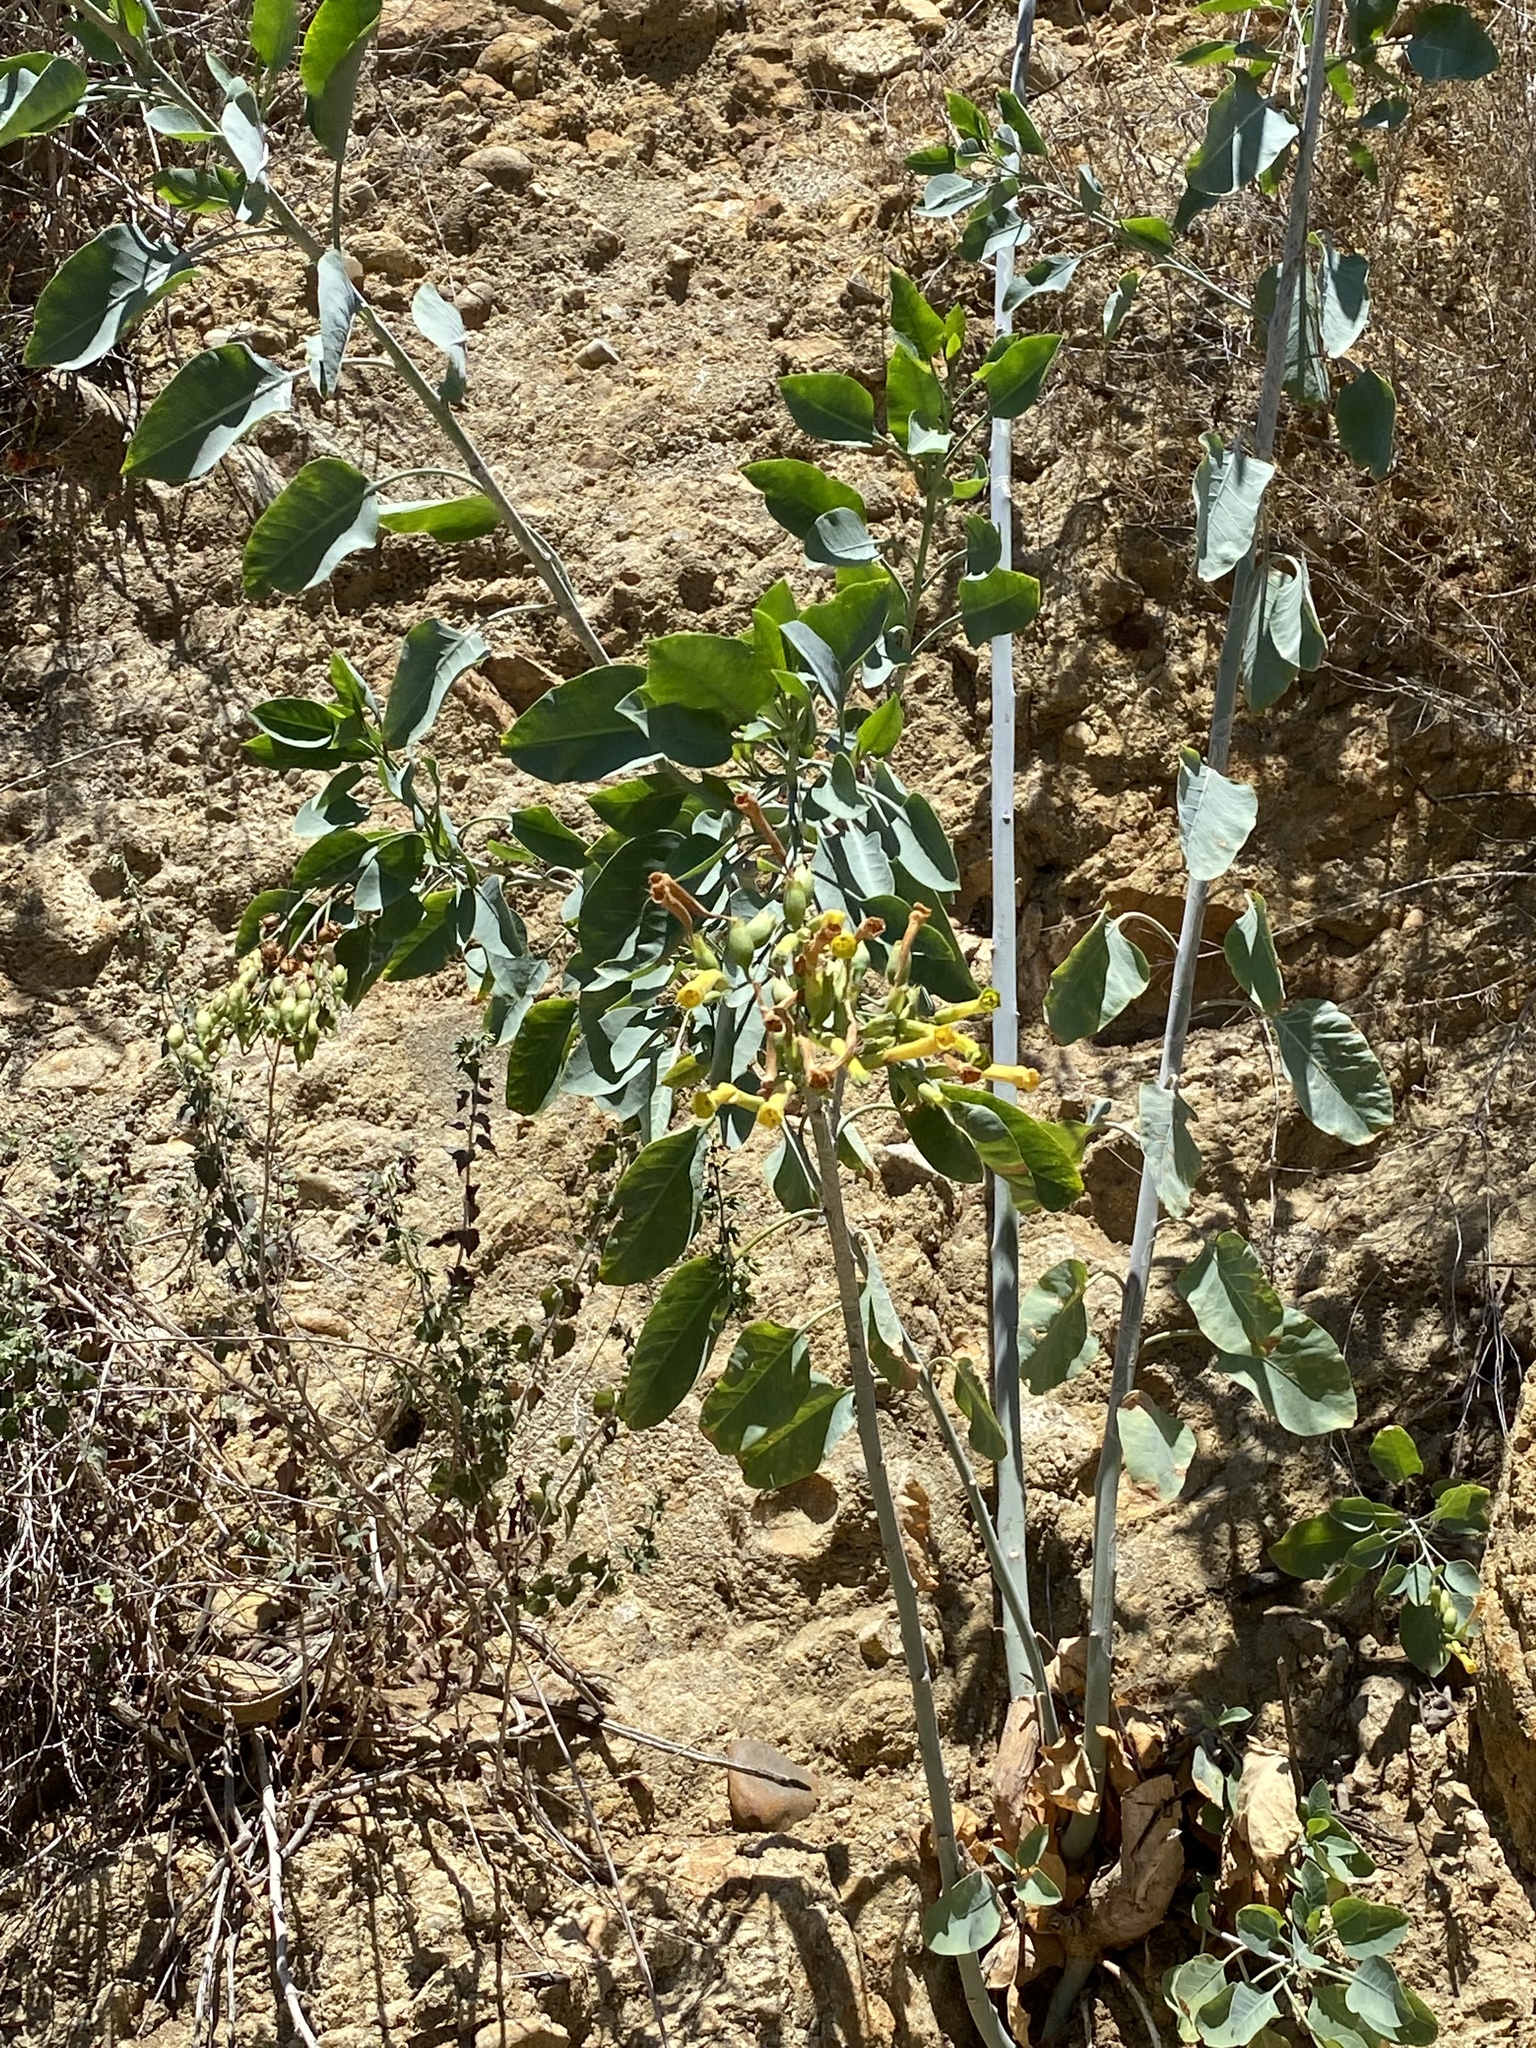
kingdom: Plantae
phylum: Tracheophyta
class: Magnoliopsida
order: Solanales
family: Solanaceae
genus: Nicotiana
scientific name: Nicotiana glauca
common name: Tree tobacco
